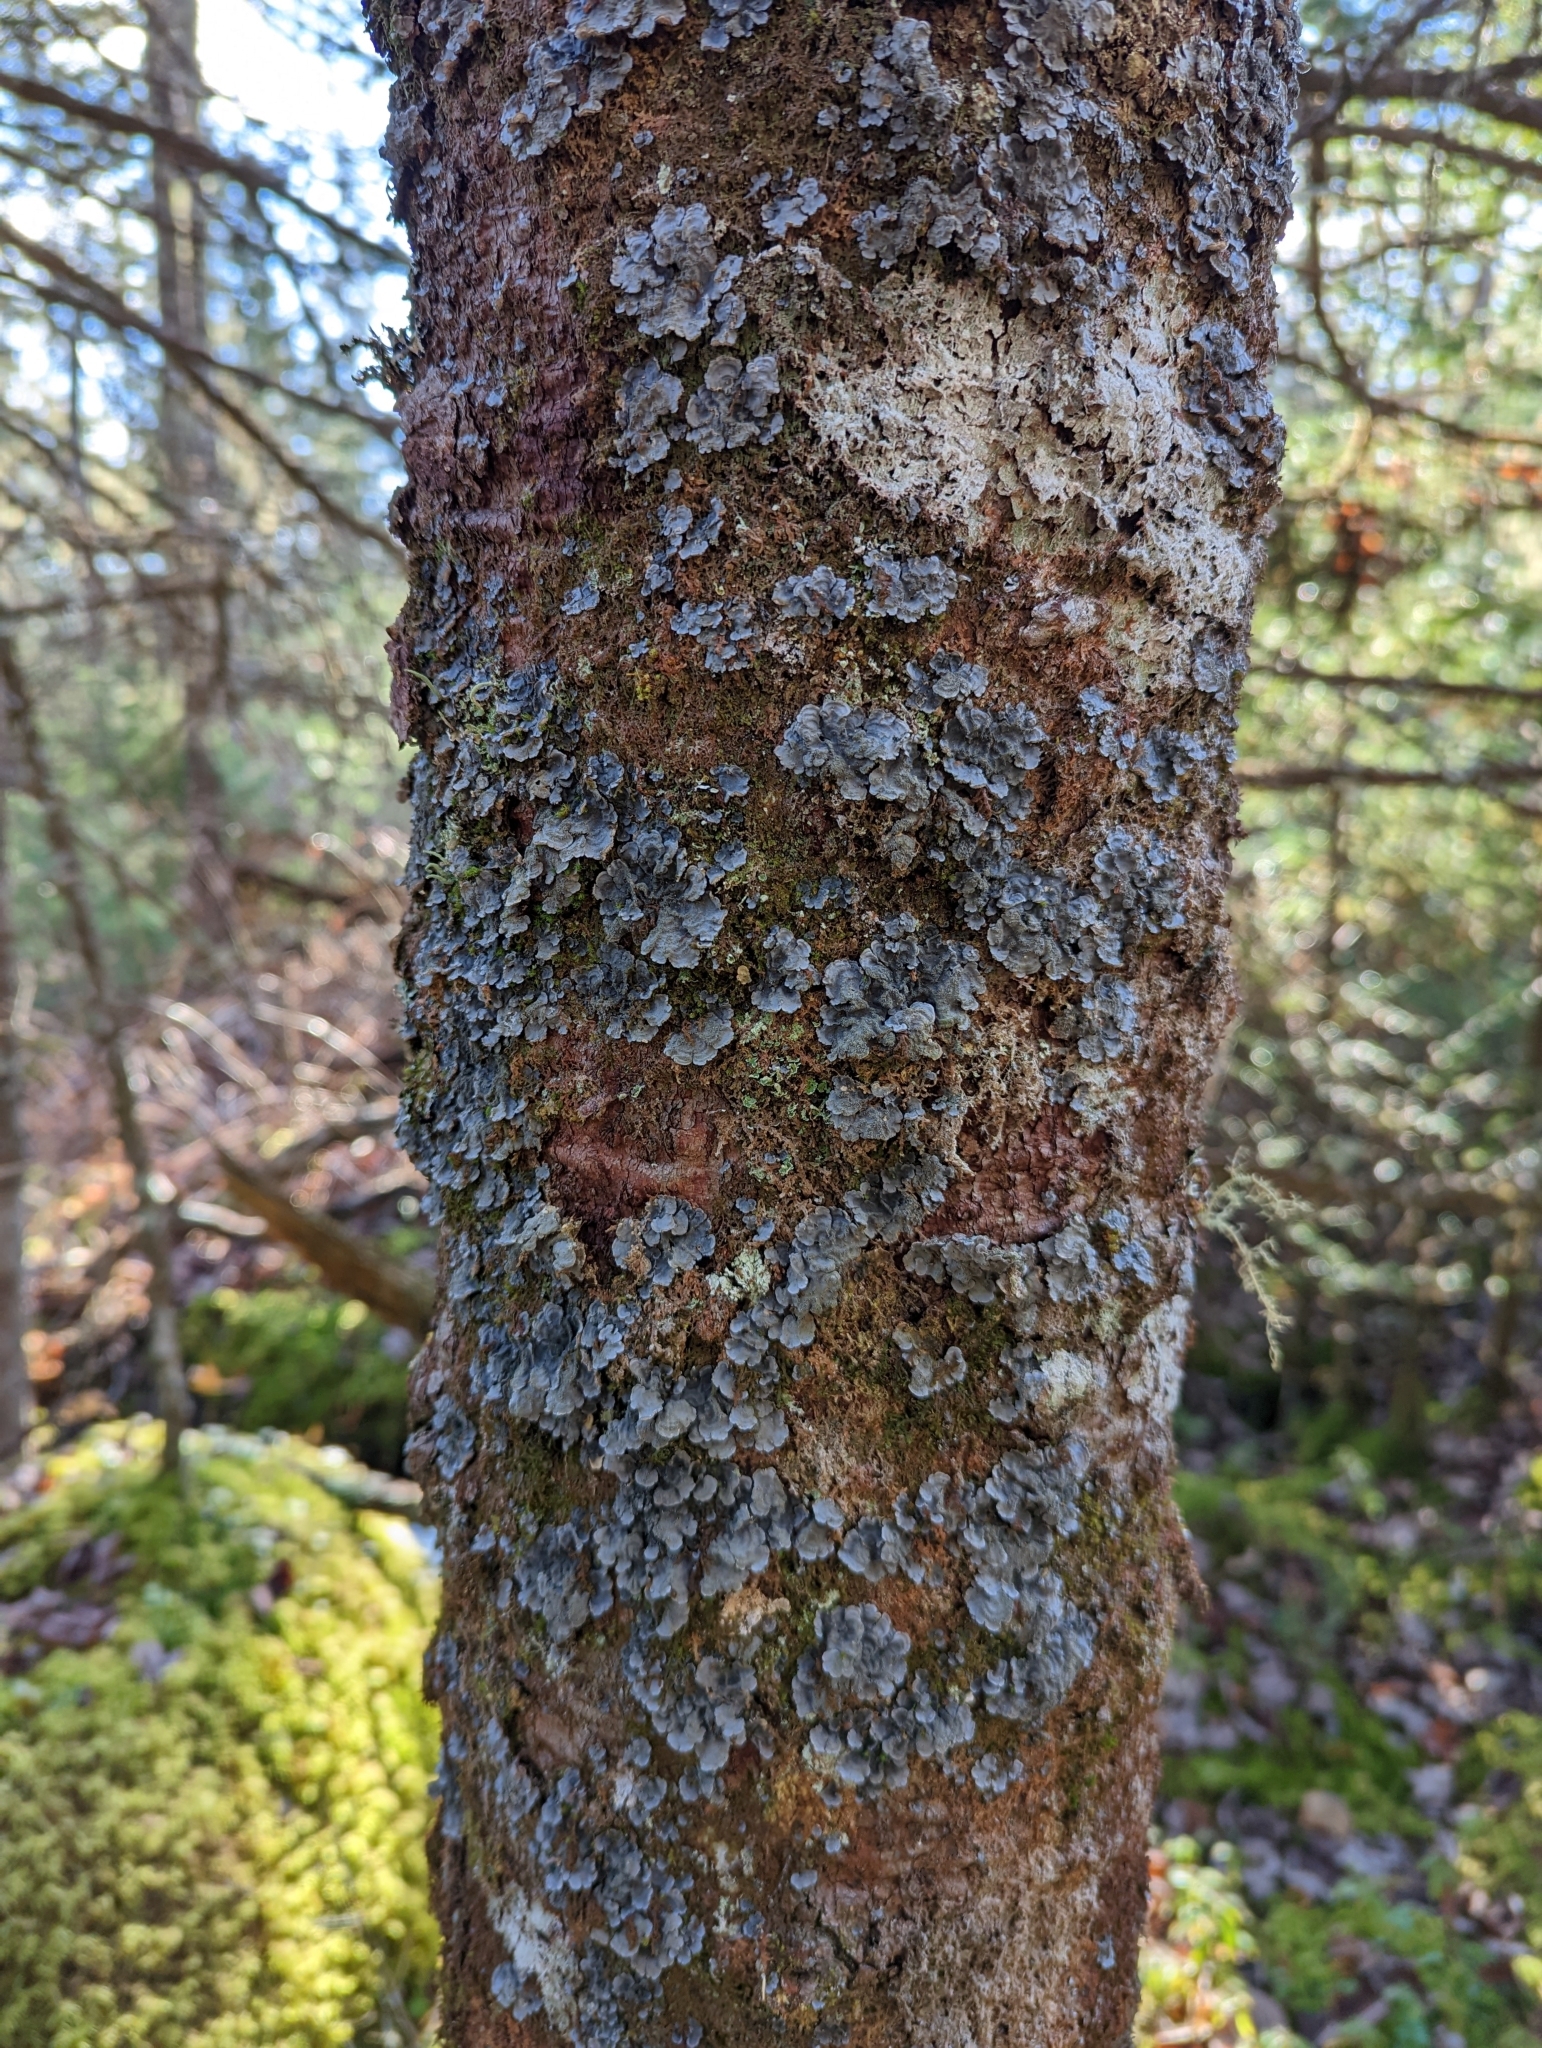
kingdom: Fungi
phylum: Ascomycota
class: Lecanoromycetes
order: Peltigerales
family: Coccocarpiaceae
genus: Coccocarpia
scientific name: Coccocarpia palmicola
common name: Salted shell lichen
